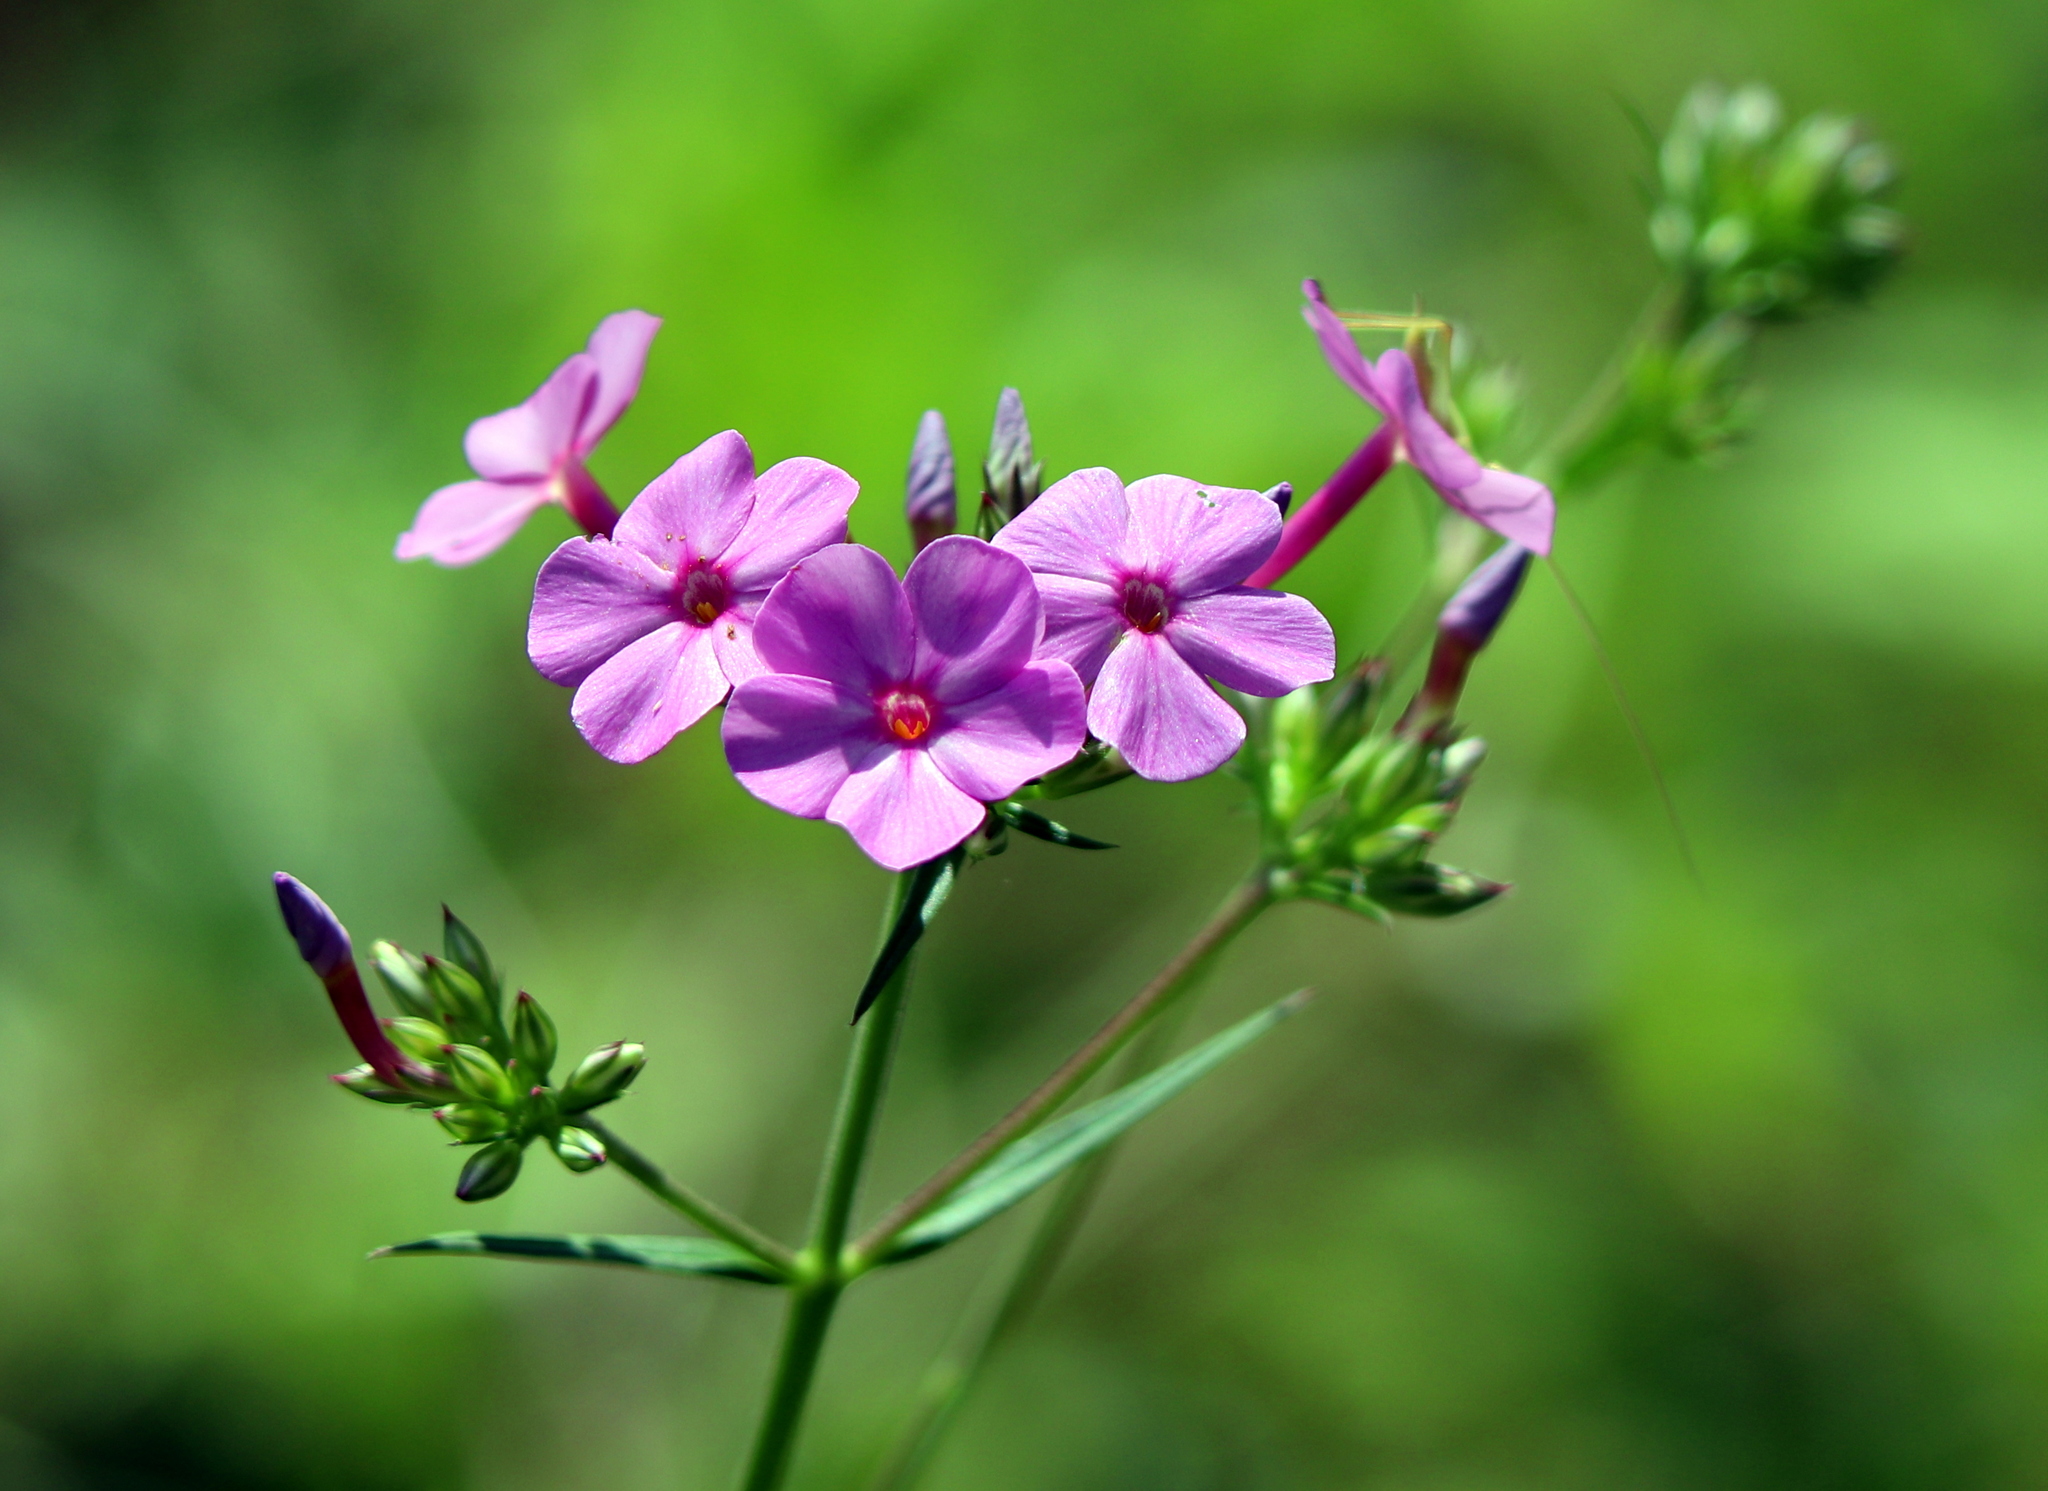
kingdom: Plantae
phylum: Tracheophyta
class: Magnoliopsida
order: Ericales
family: Polemoniaceae
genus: Phlox
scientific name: Phlox carolina
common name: Thick-leaf phlox
